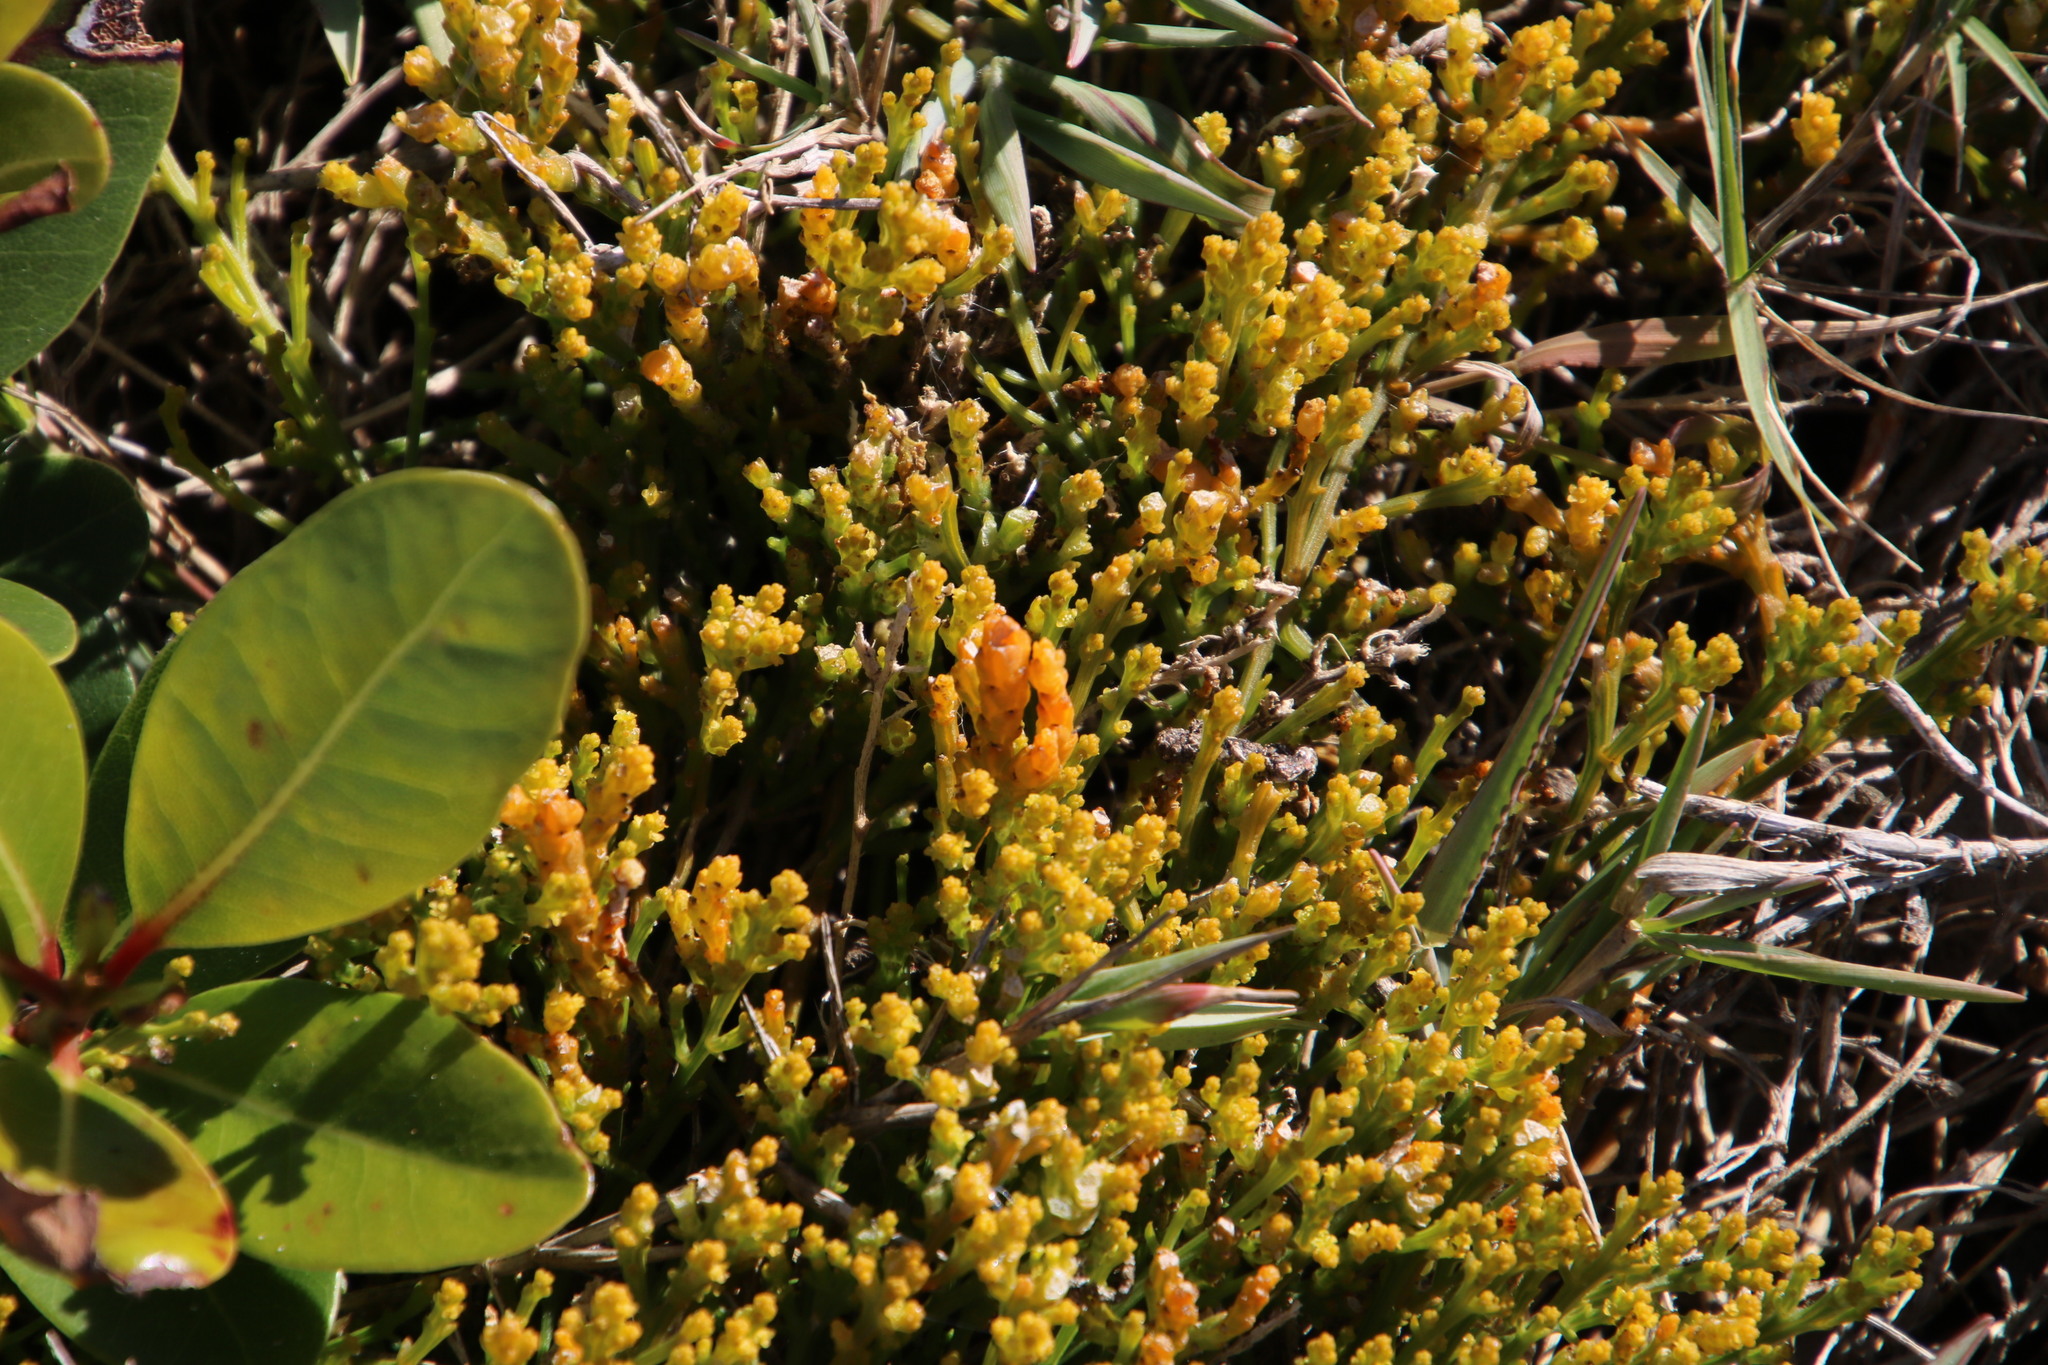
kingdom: Plantae
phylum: Tracheophyta
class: Magnoliopsida
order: Santalales
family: Thesiaceae
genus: Thesium
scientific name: Thesium fragile
